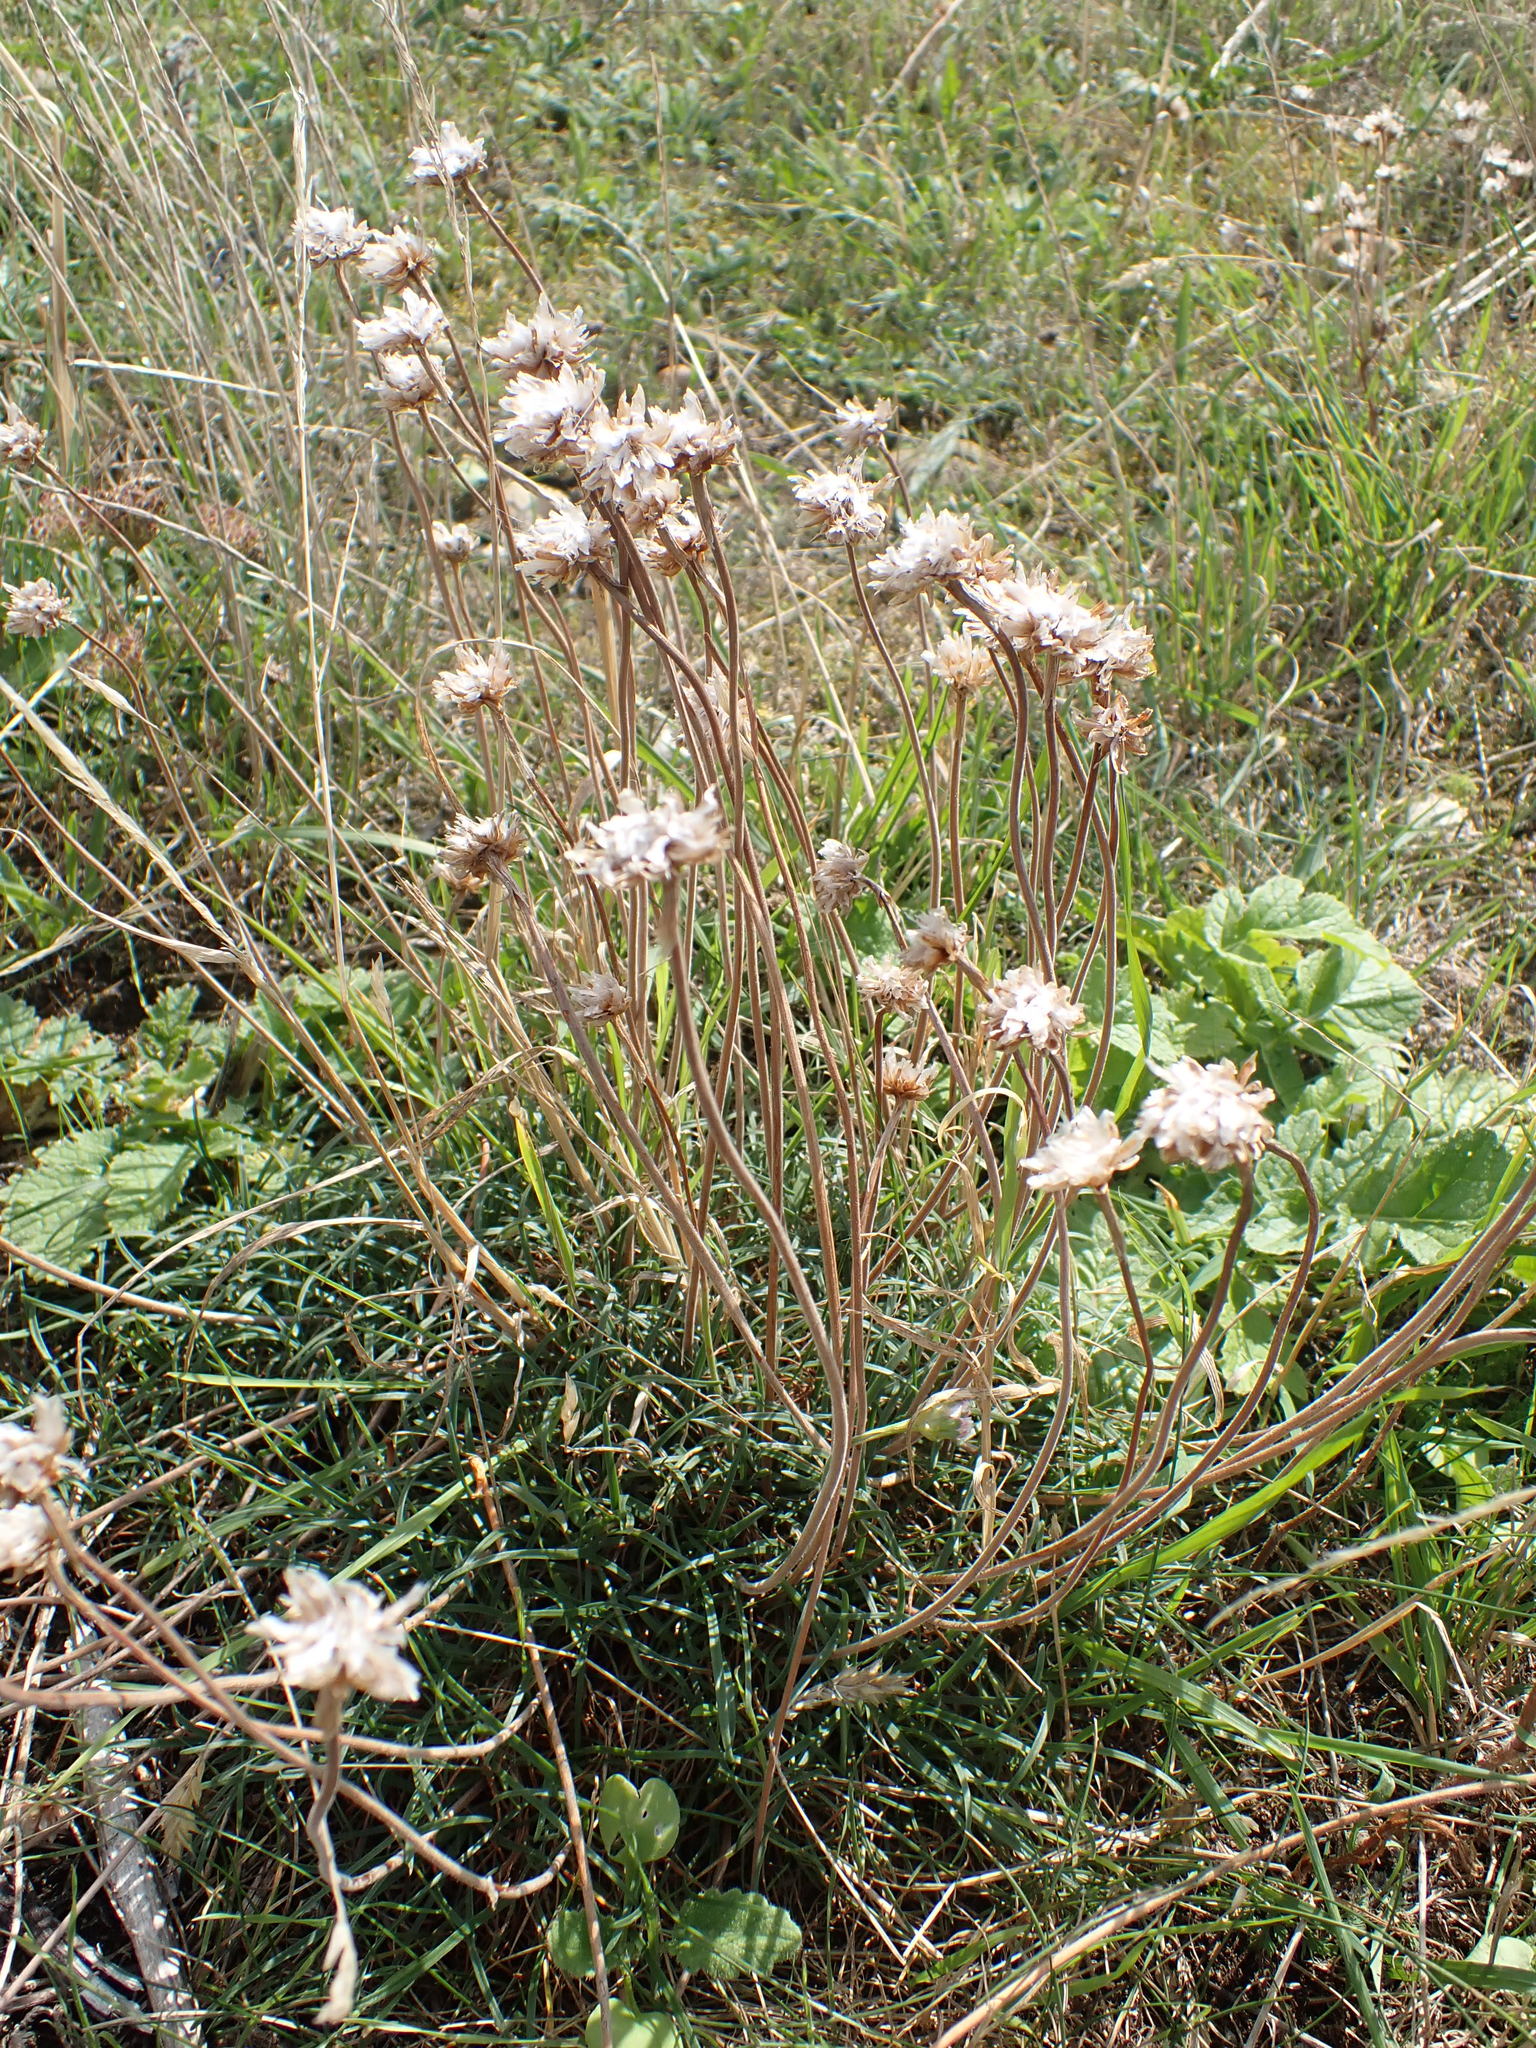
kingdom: Plantae
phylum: Tracheophyta
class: Magnoliopsida
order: Caryophyllales
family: Plumbaginaceae
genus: Armeria
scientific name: Armeria maritima
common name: Thrift
